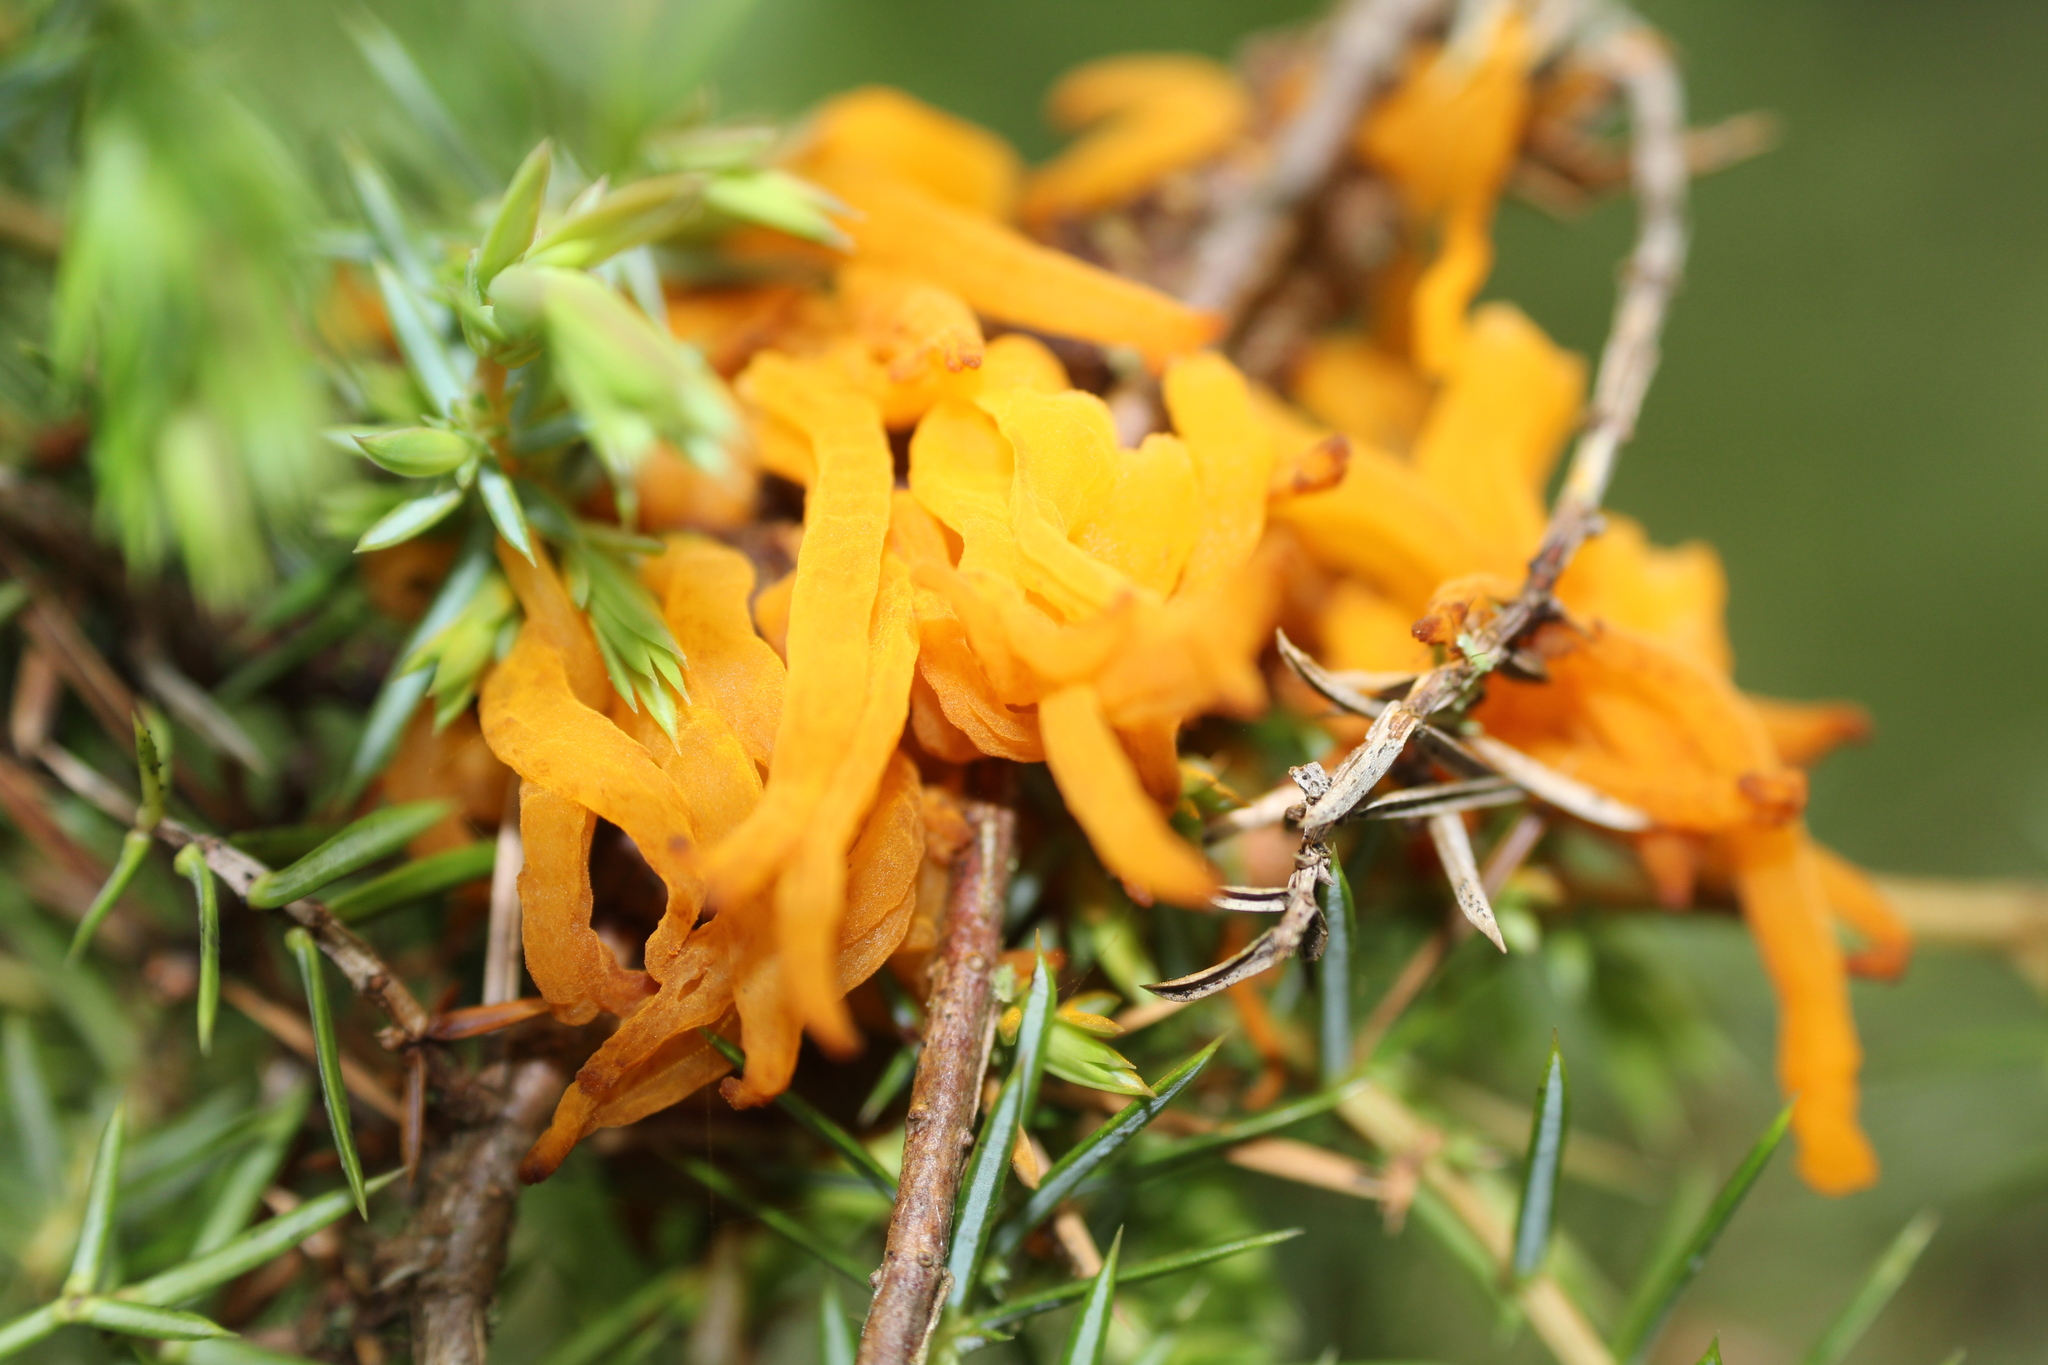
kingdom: Fungi
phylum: Basidiomycota
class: Pucciniomycetes
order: Pucciniales
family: Gymnosporangiaceae
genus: Gymnosporangium
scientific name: Gymnosporangium clavariiforme
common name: Tongues of fire
